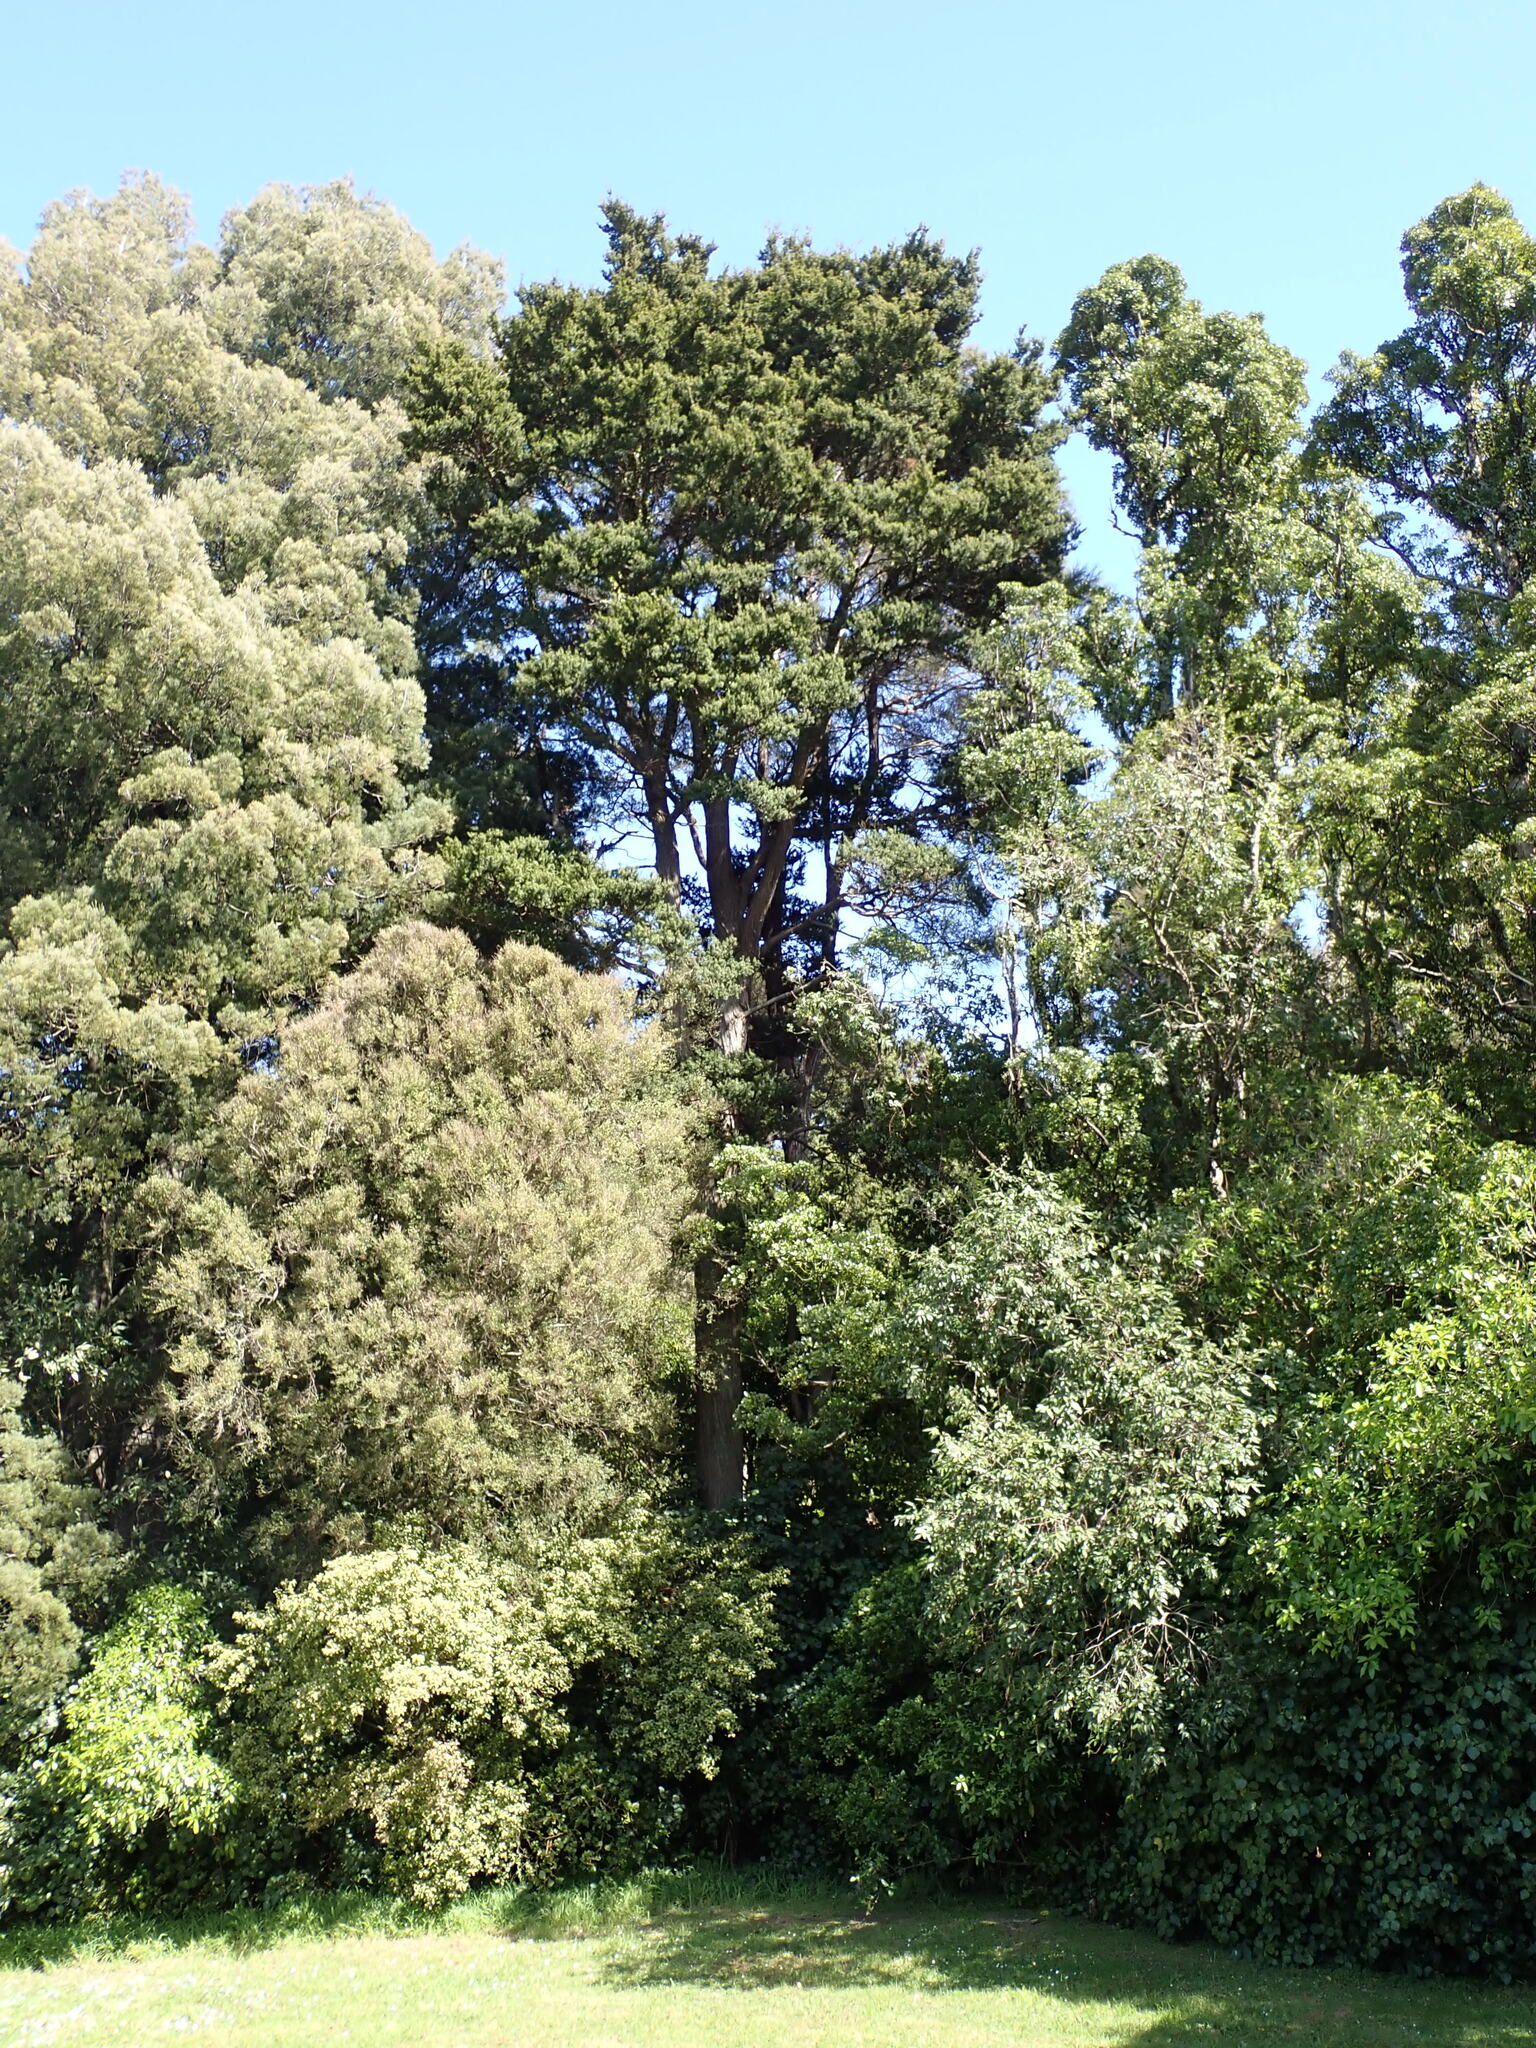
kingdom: Plantae
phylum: Tracheophyta
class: Pinopsida
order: Pinales
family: Podocarpaceae
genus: Podocarpus
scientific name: Podocarpus totara
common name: Totara
